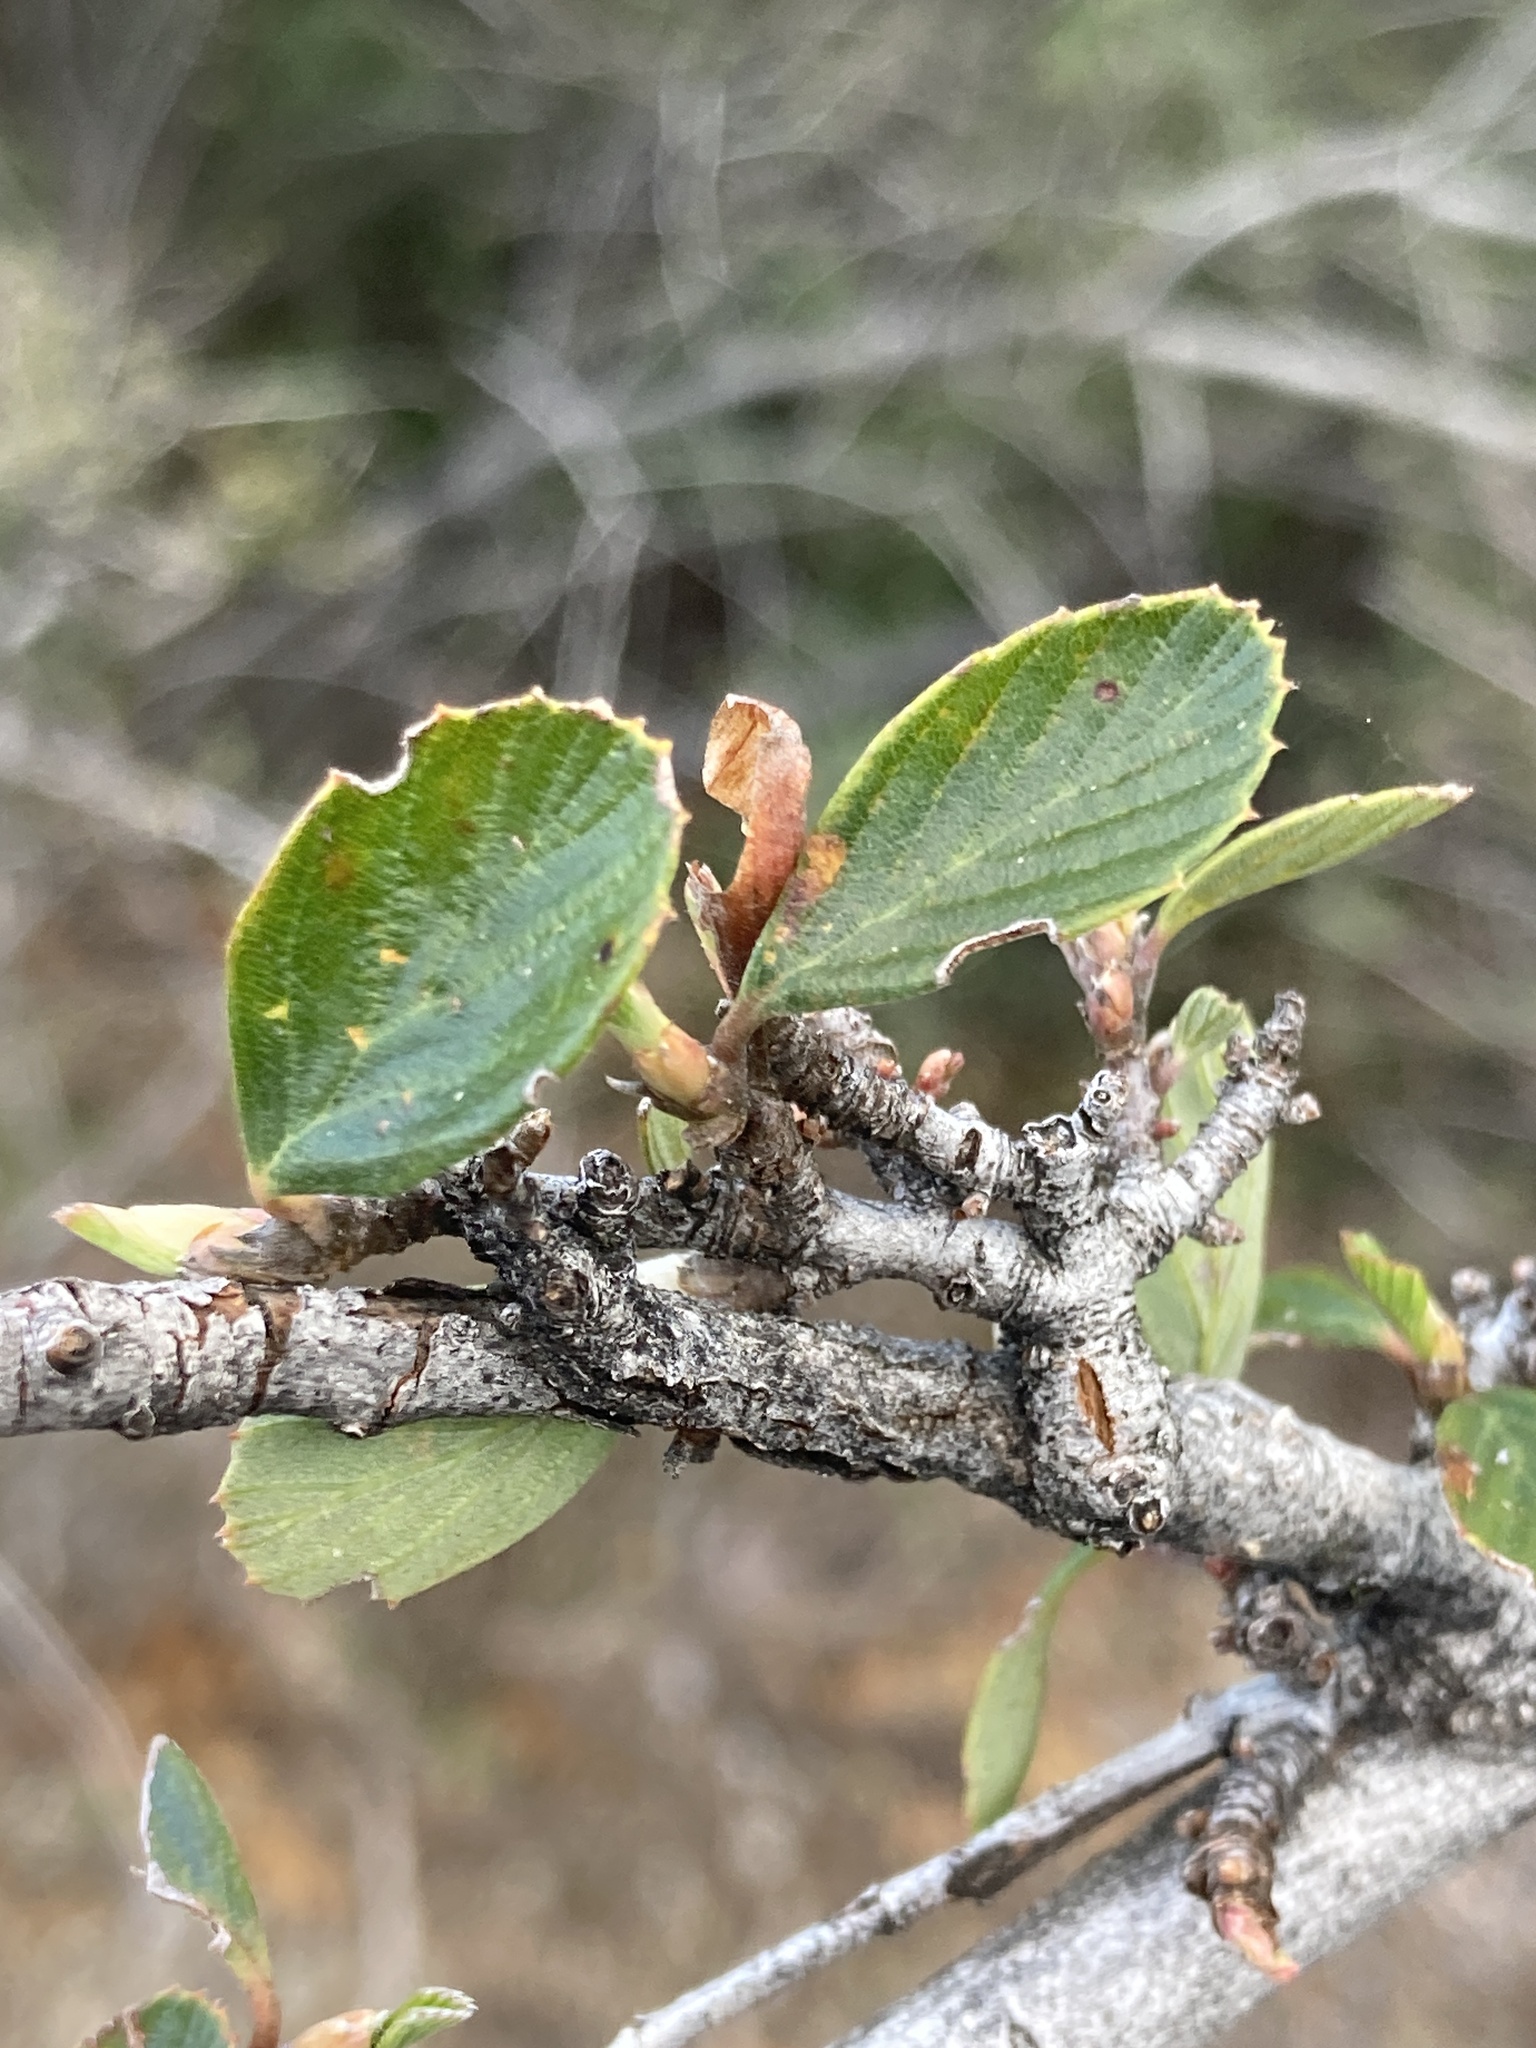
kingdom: Plantae
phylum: Tracheophyta
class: Magnoliopsida
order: Rosales
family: Rosaceae
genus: Cercocarpus
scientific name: Cercocarpus betuloides
